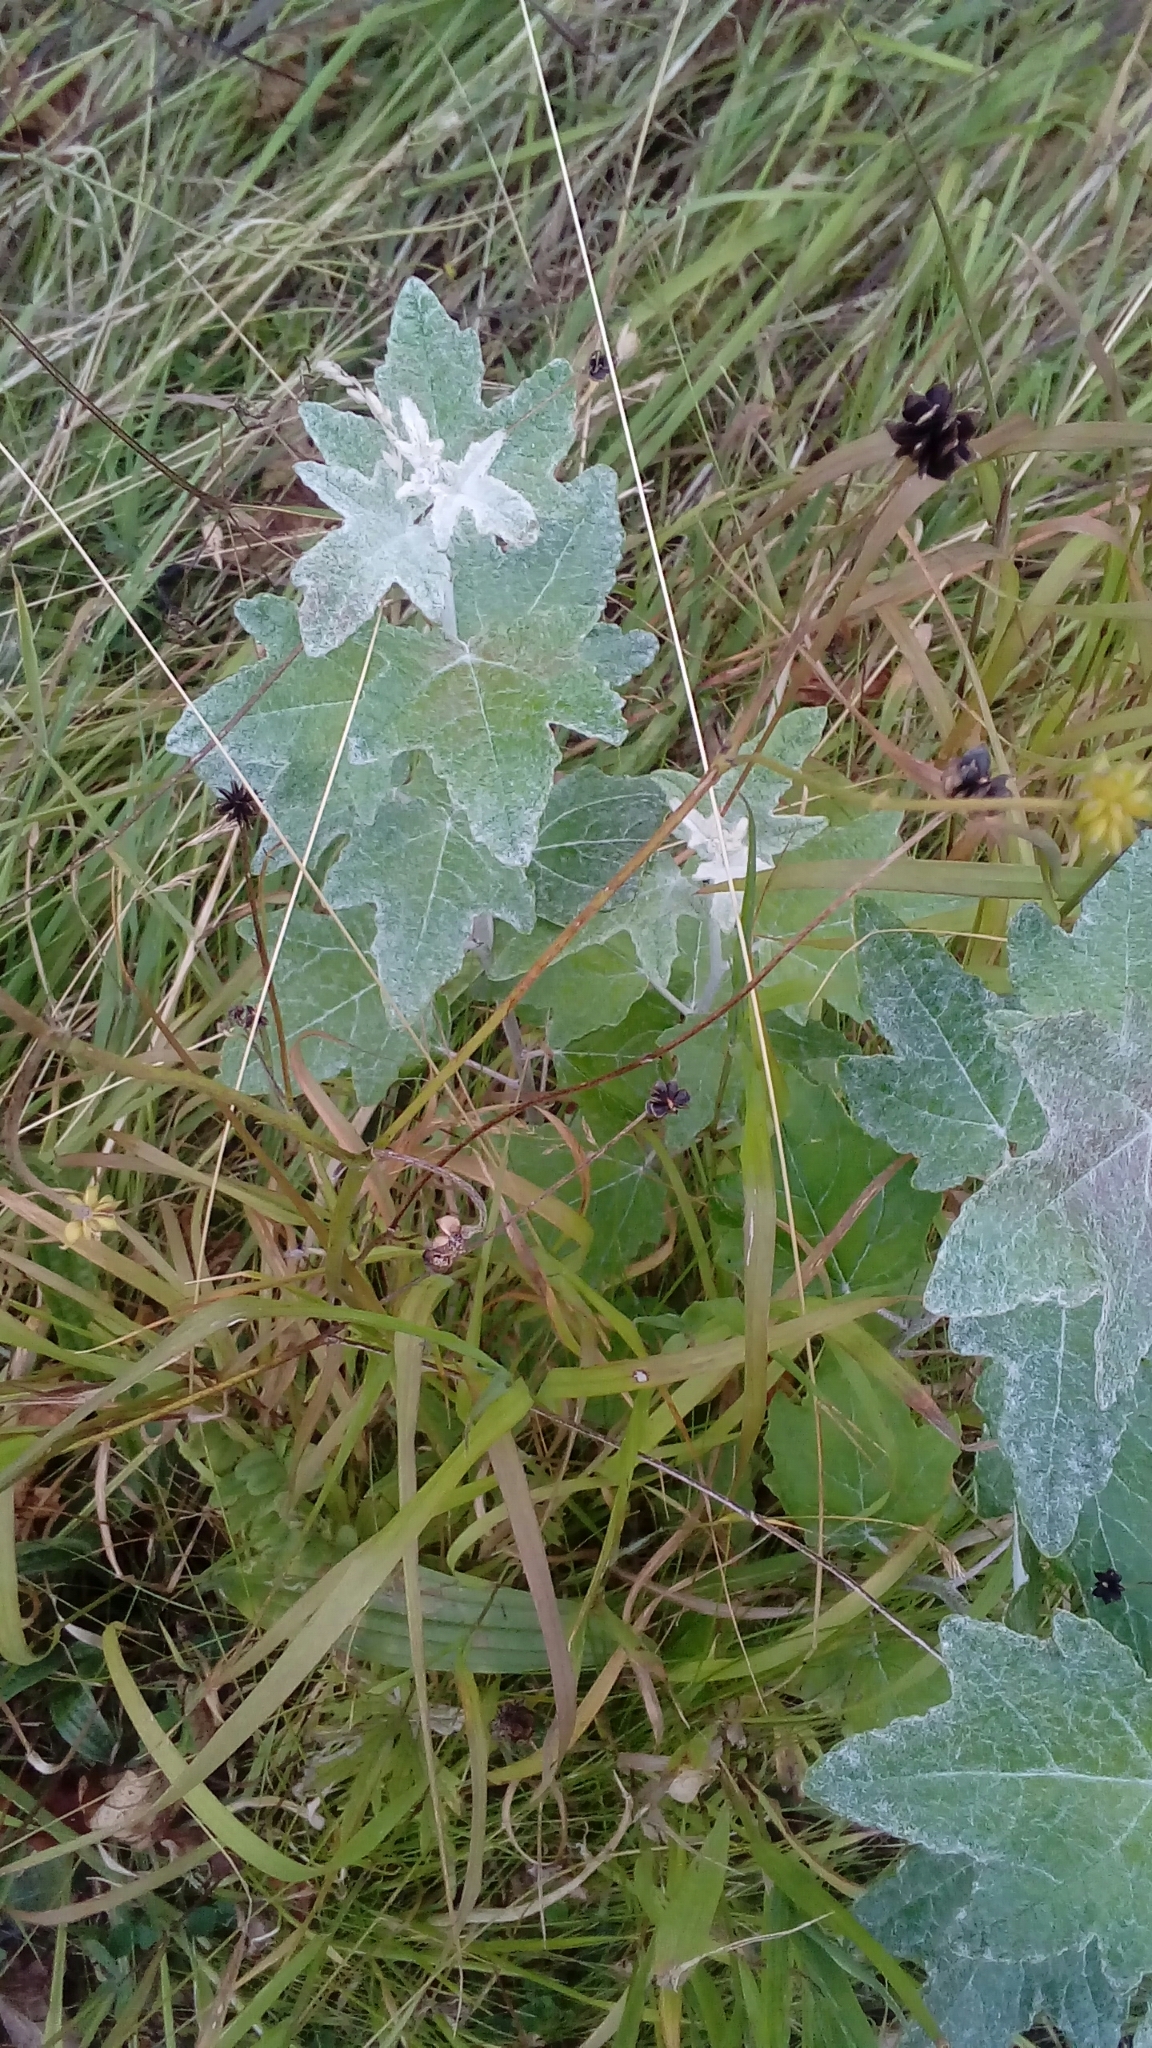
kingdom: Plantae
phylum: Tracheophyta
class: Magnoliopsida
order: Malpighiales
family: Salicaceae
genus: Populus
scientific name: Populus alba
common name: White poplar
